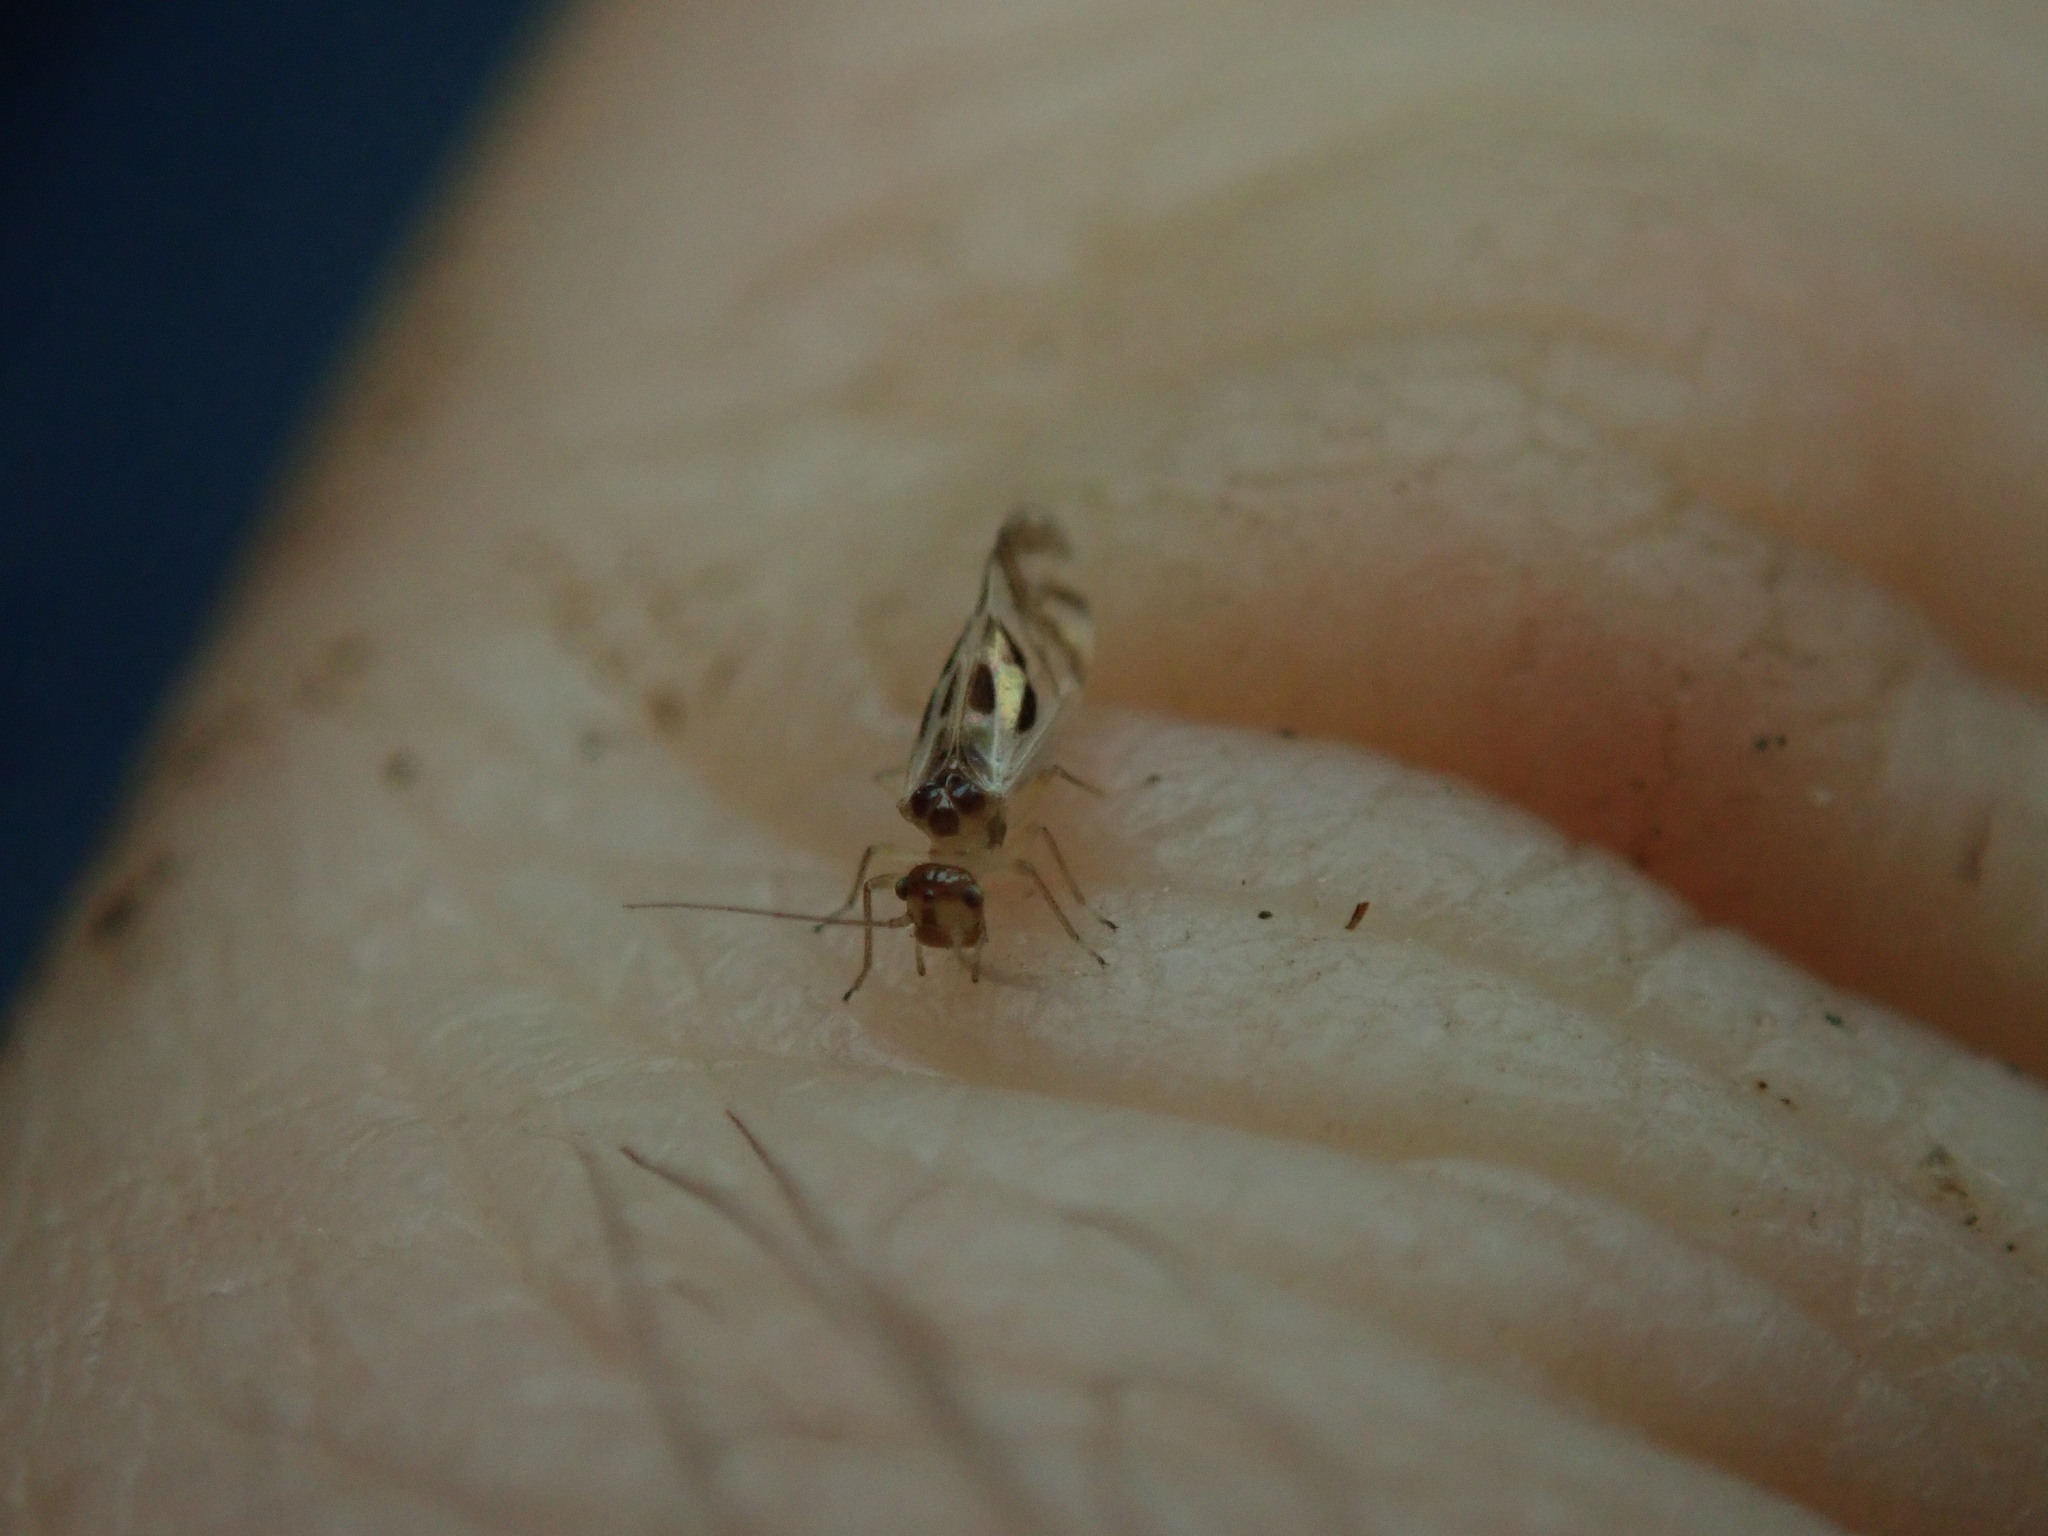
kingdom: Animalia
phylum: Arthropoda
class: Insecta
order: Psocodea
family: Stenopsocidae
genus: Graphopsocus
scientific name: Graphopsocus cruciatus
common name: Lizard bark louse
